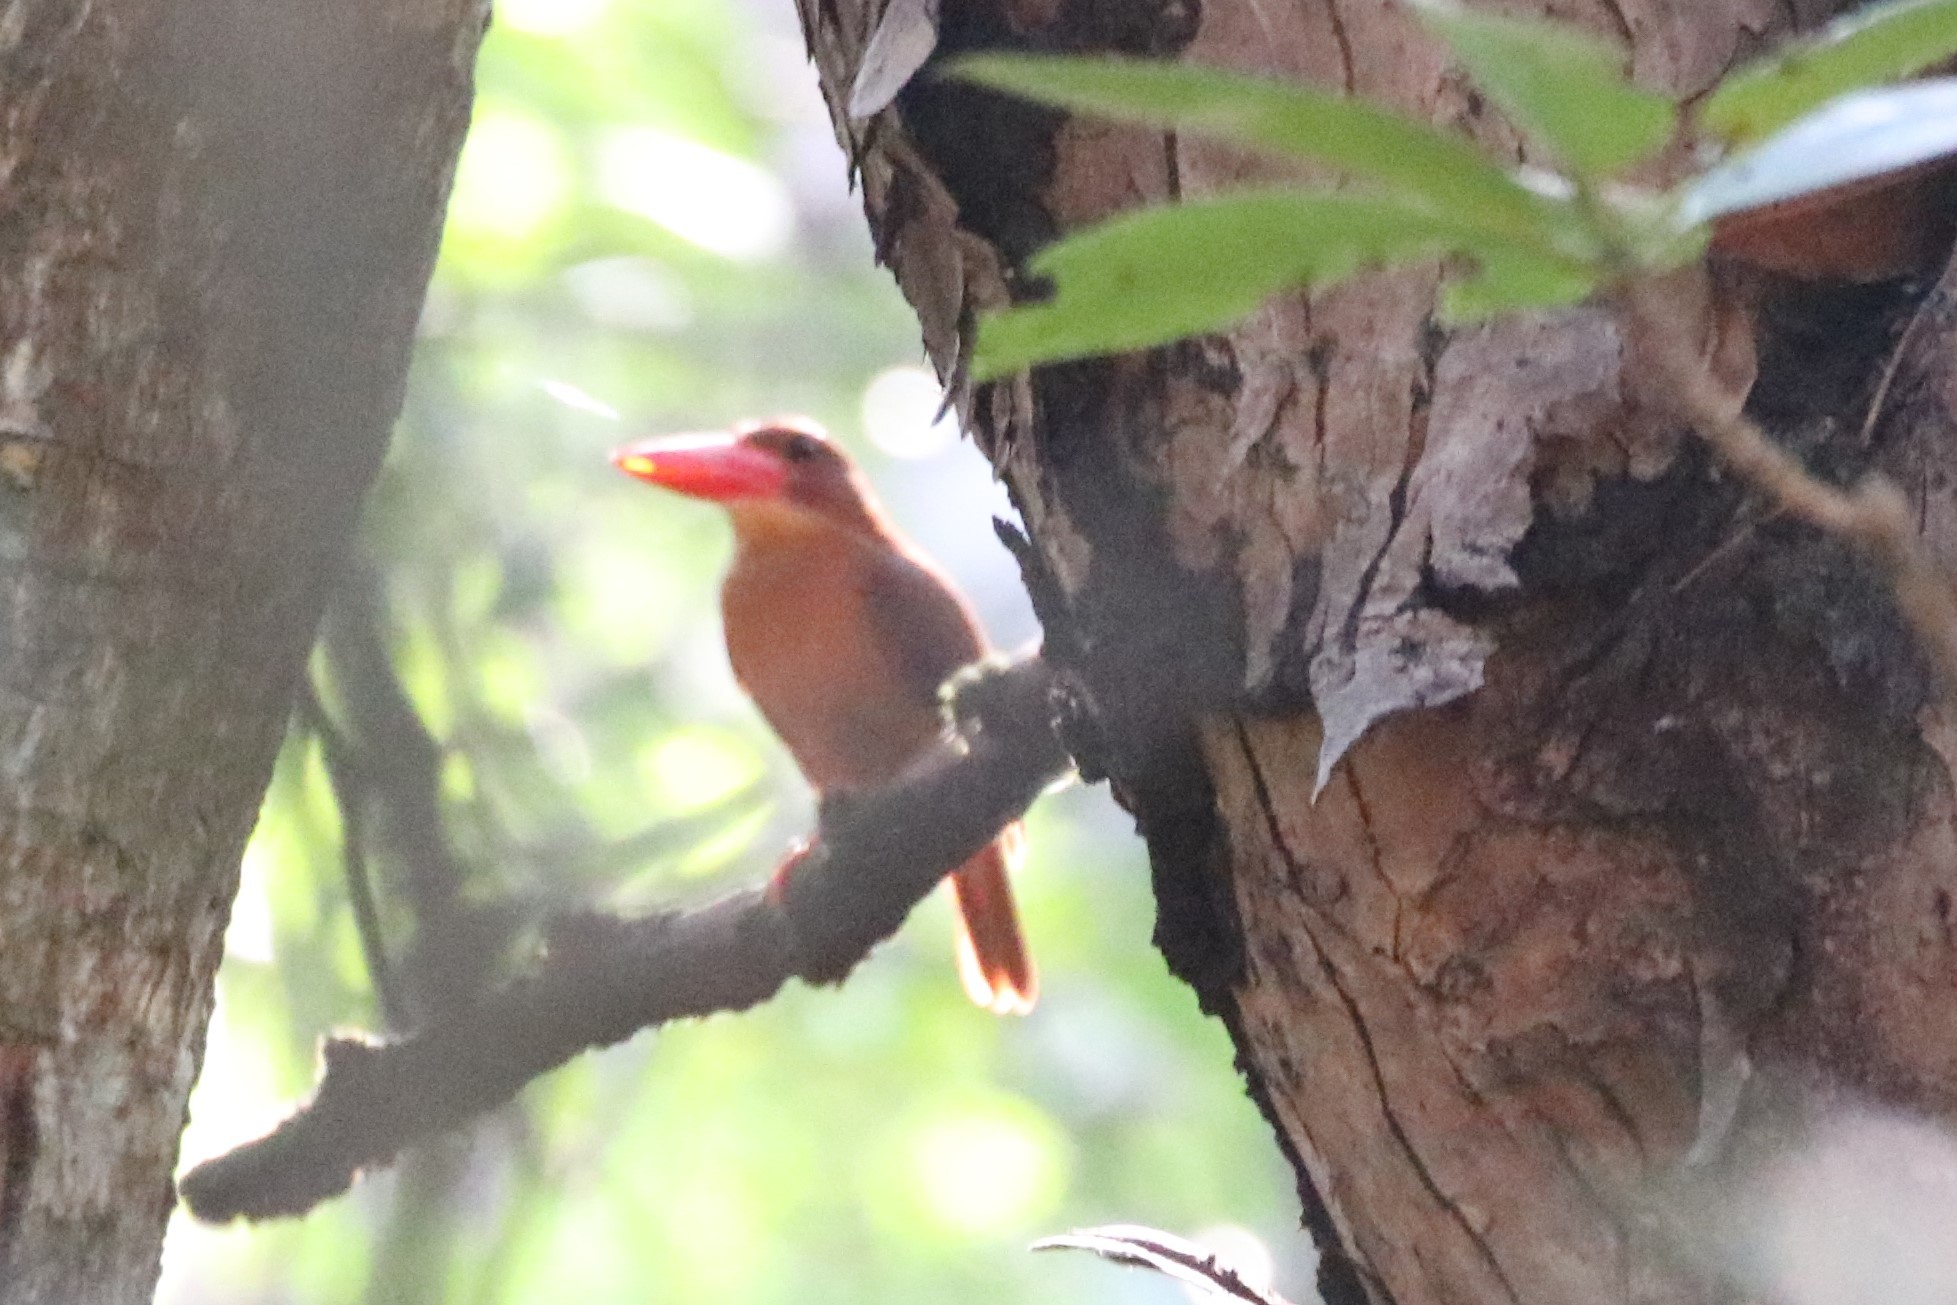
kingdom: Animalia
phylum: Chordata
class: Aves
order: Coraciiformes
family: Alcedinidae
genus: Halcyon
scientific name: Halcyon coromanda
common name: Ruddy kingfisher
